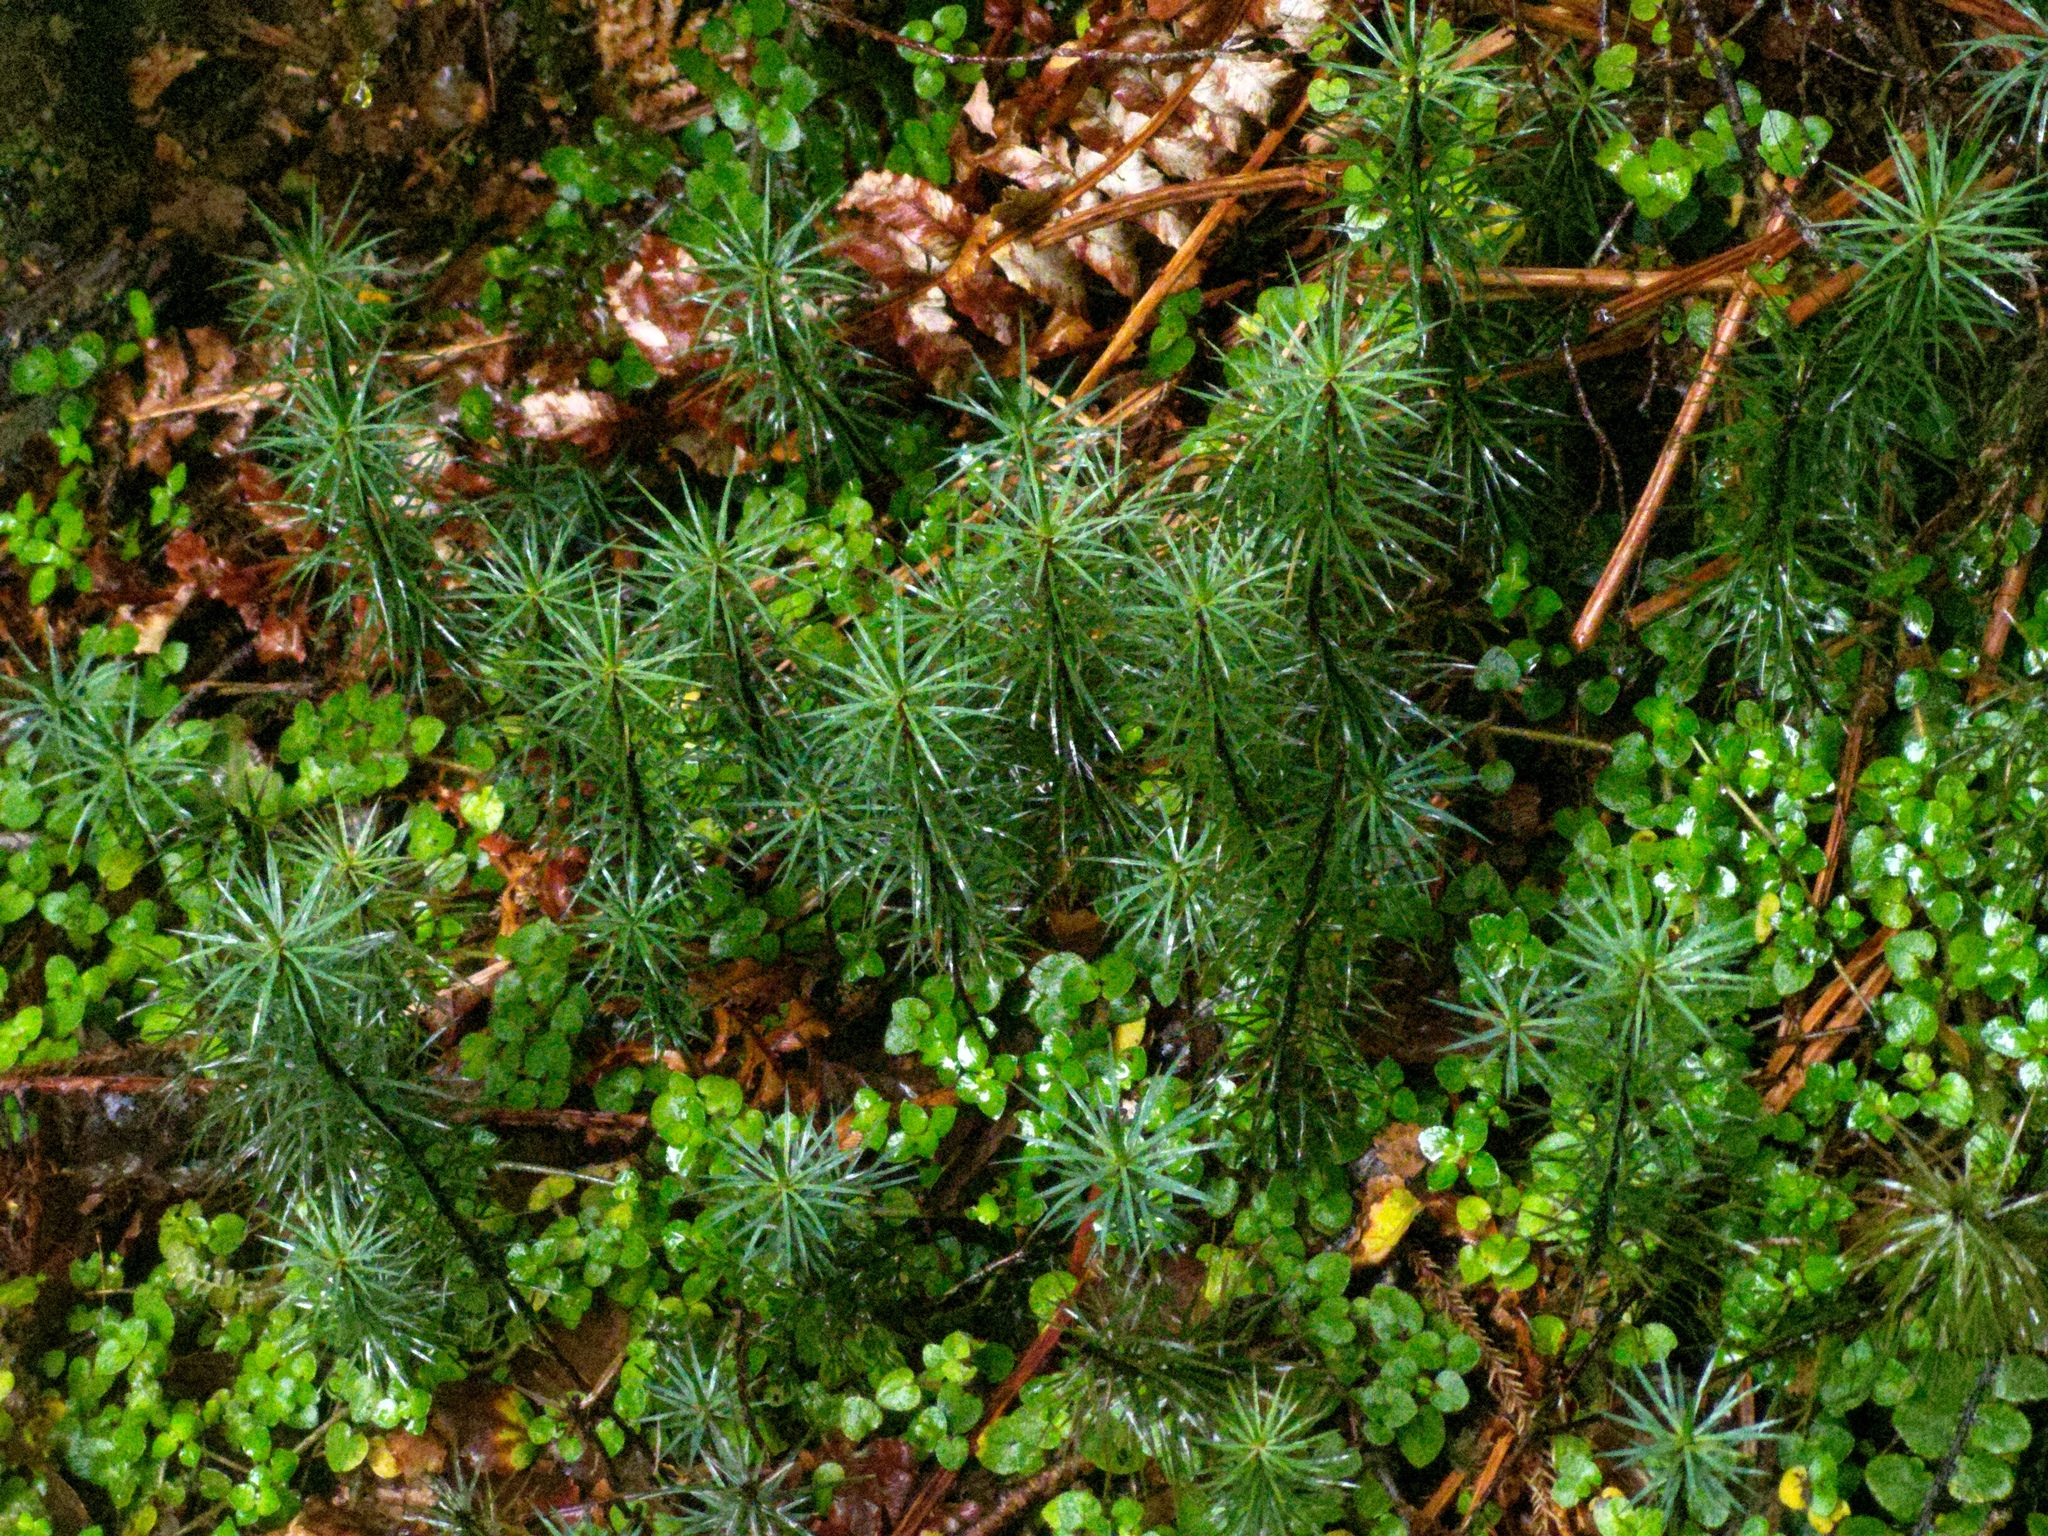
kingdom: Plantae
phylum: Bryophyta
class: Polytrichopsida
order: Polytrichales
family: Polytrichaceae
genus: Dawsonia
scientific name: Dawsonia superba
